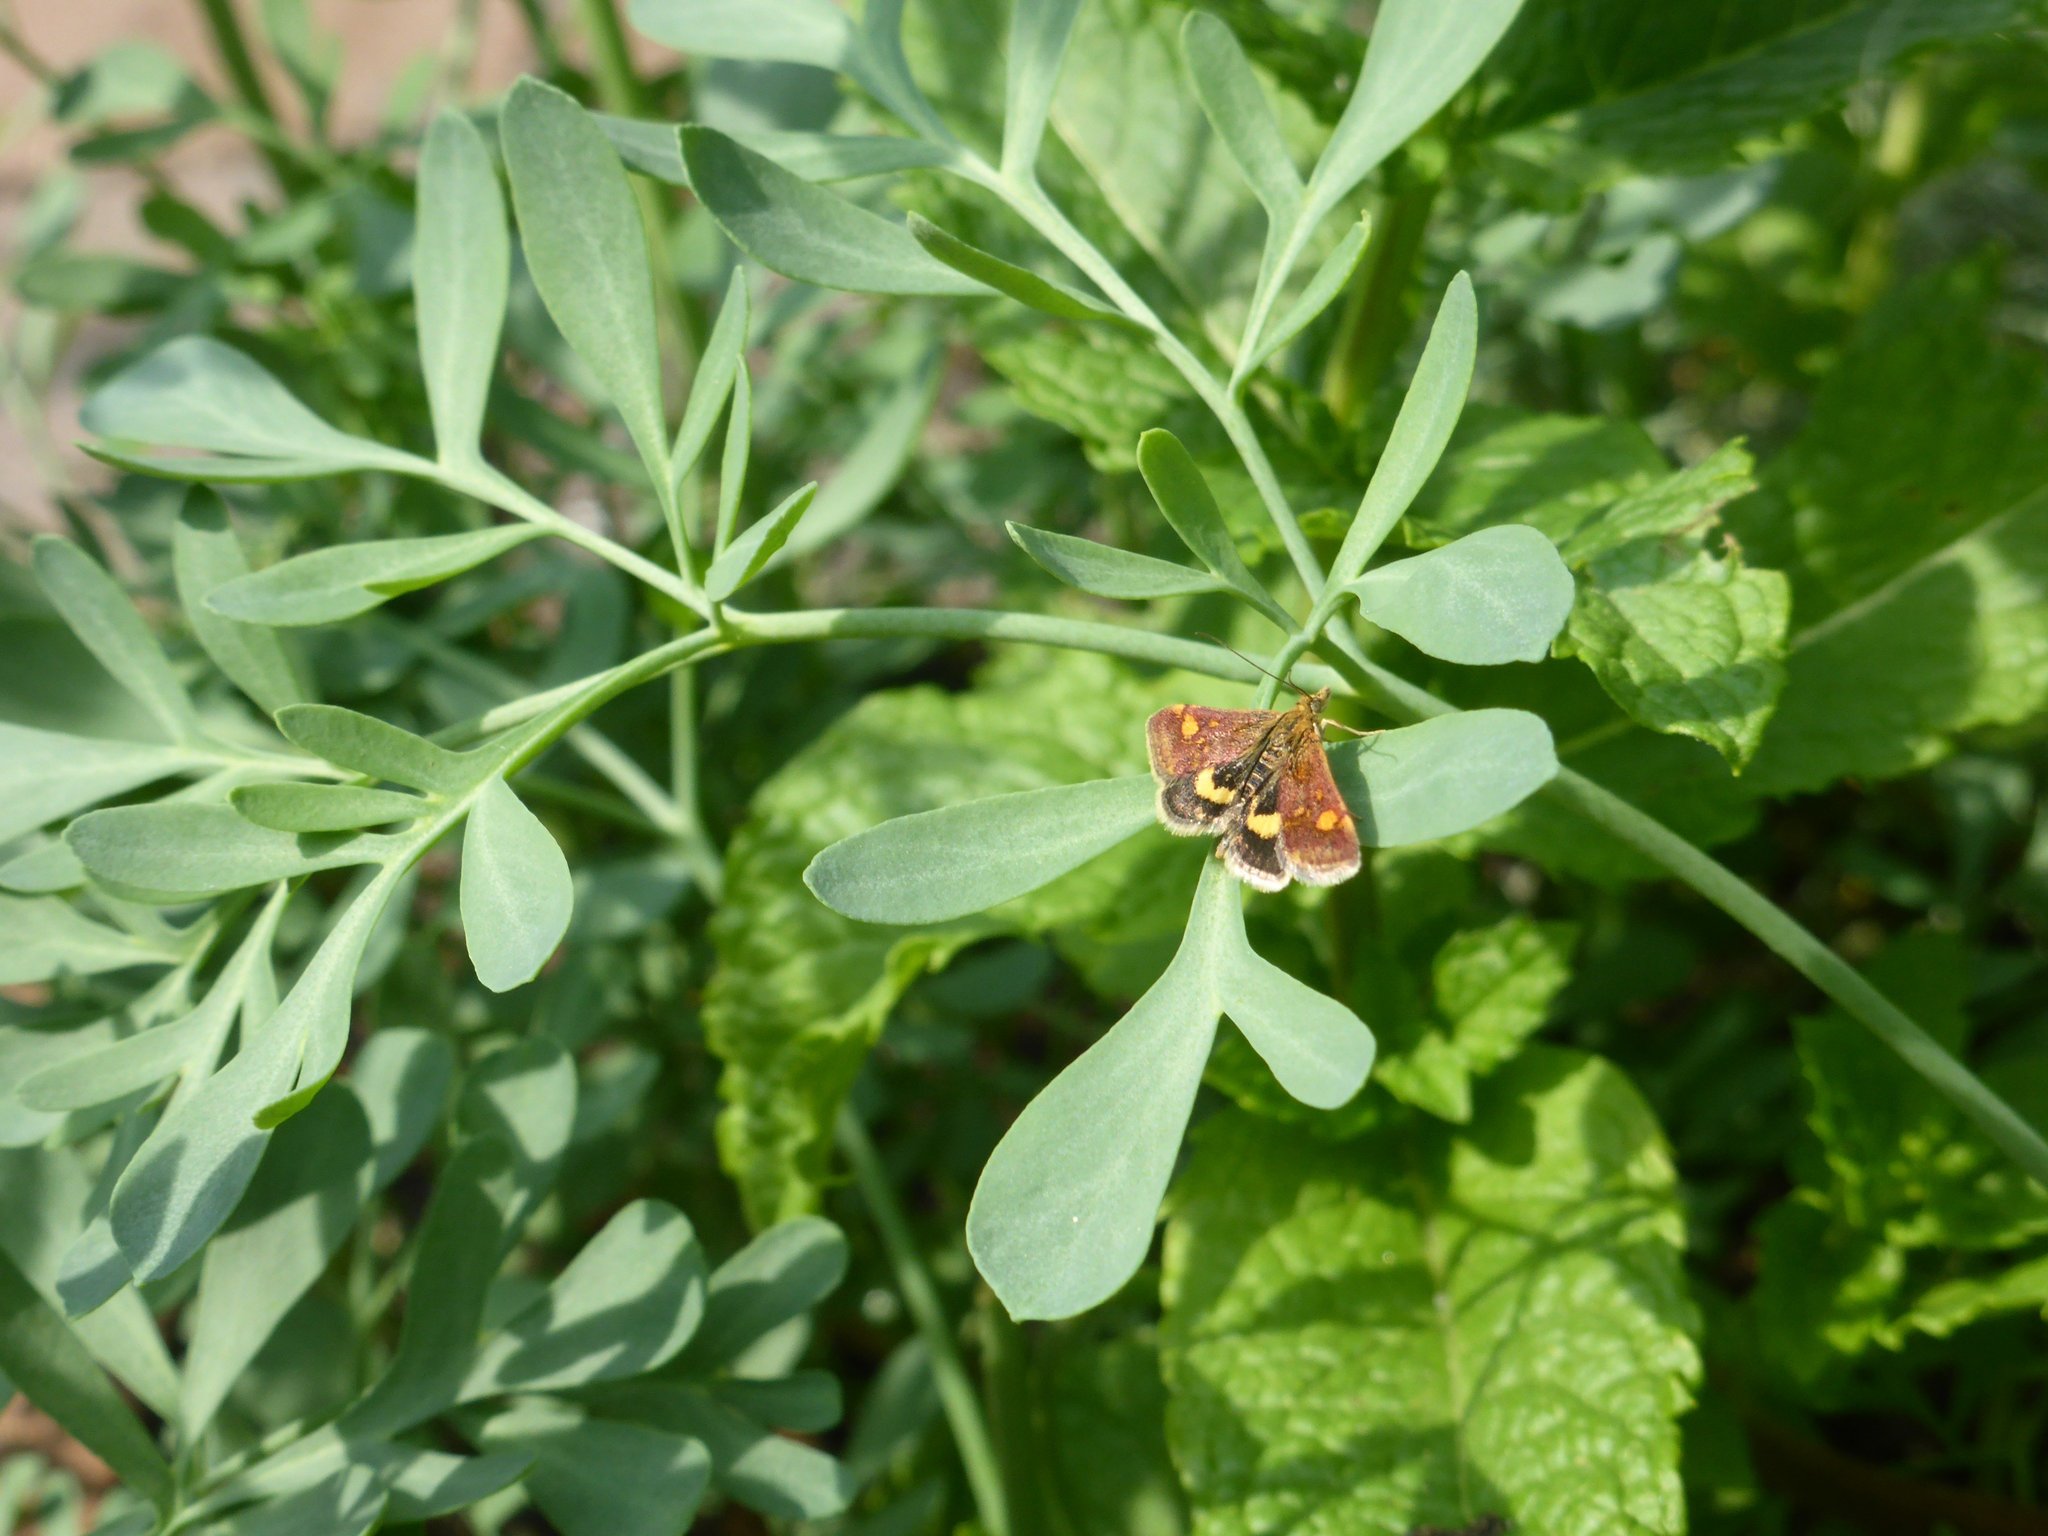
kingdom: Animalia
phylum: Arthropoda
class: Insecta
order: Lepidoptera
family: Crambidae
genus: Pyrausta
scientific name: Pyrausta aurata
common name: Small purple & gold
